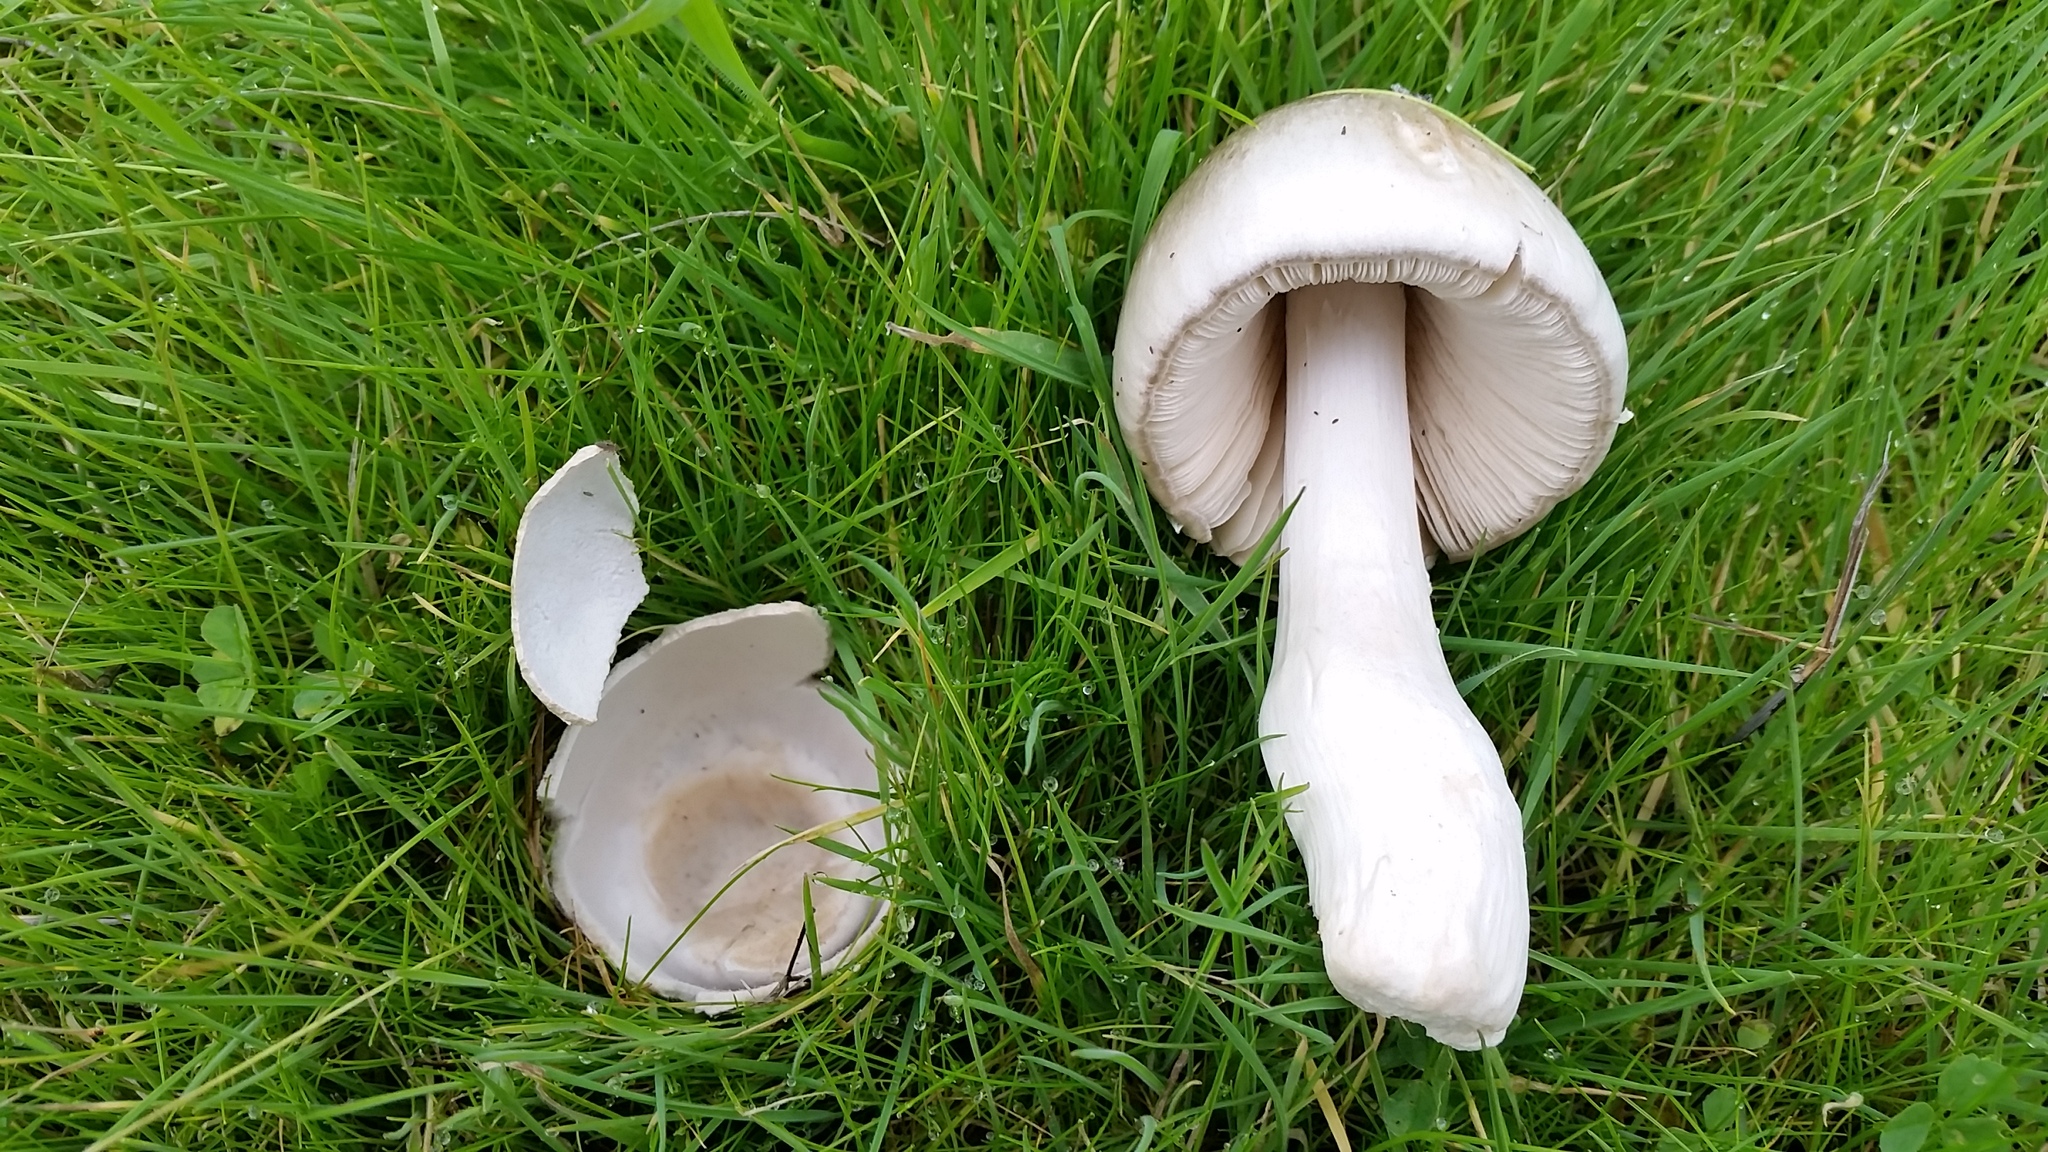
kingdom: Fungi
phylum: Basidiomycota
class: Agaricomycetes
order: Agaricales
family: Pluteaceae
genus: Volvopluteus
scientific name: Volvopluteus gloiocephalus
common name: Stubble rosegill
